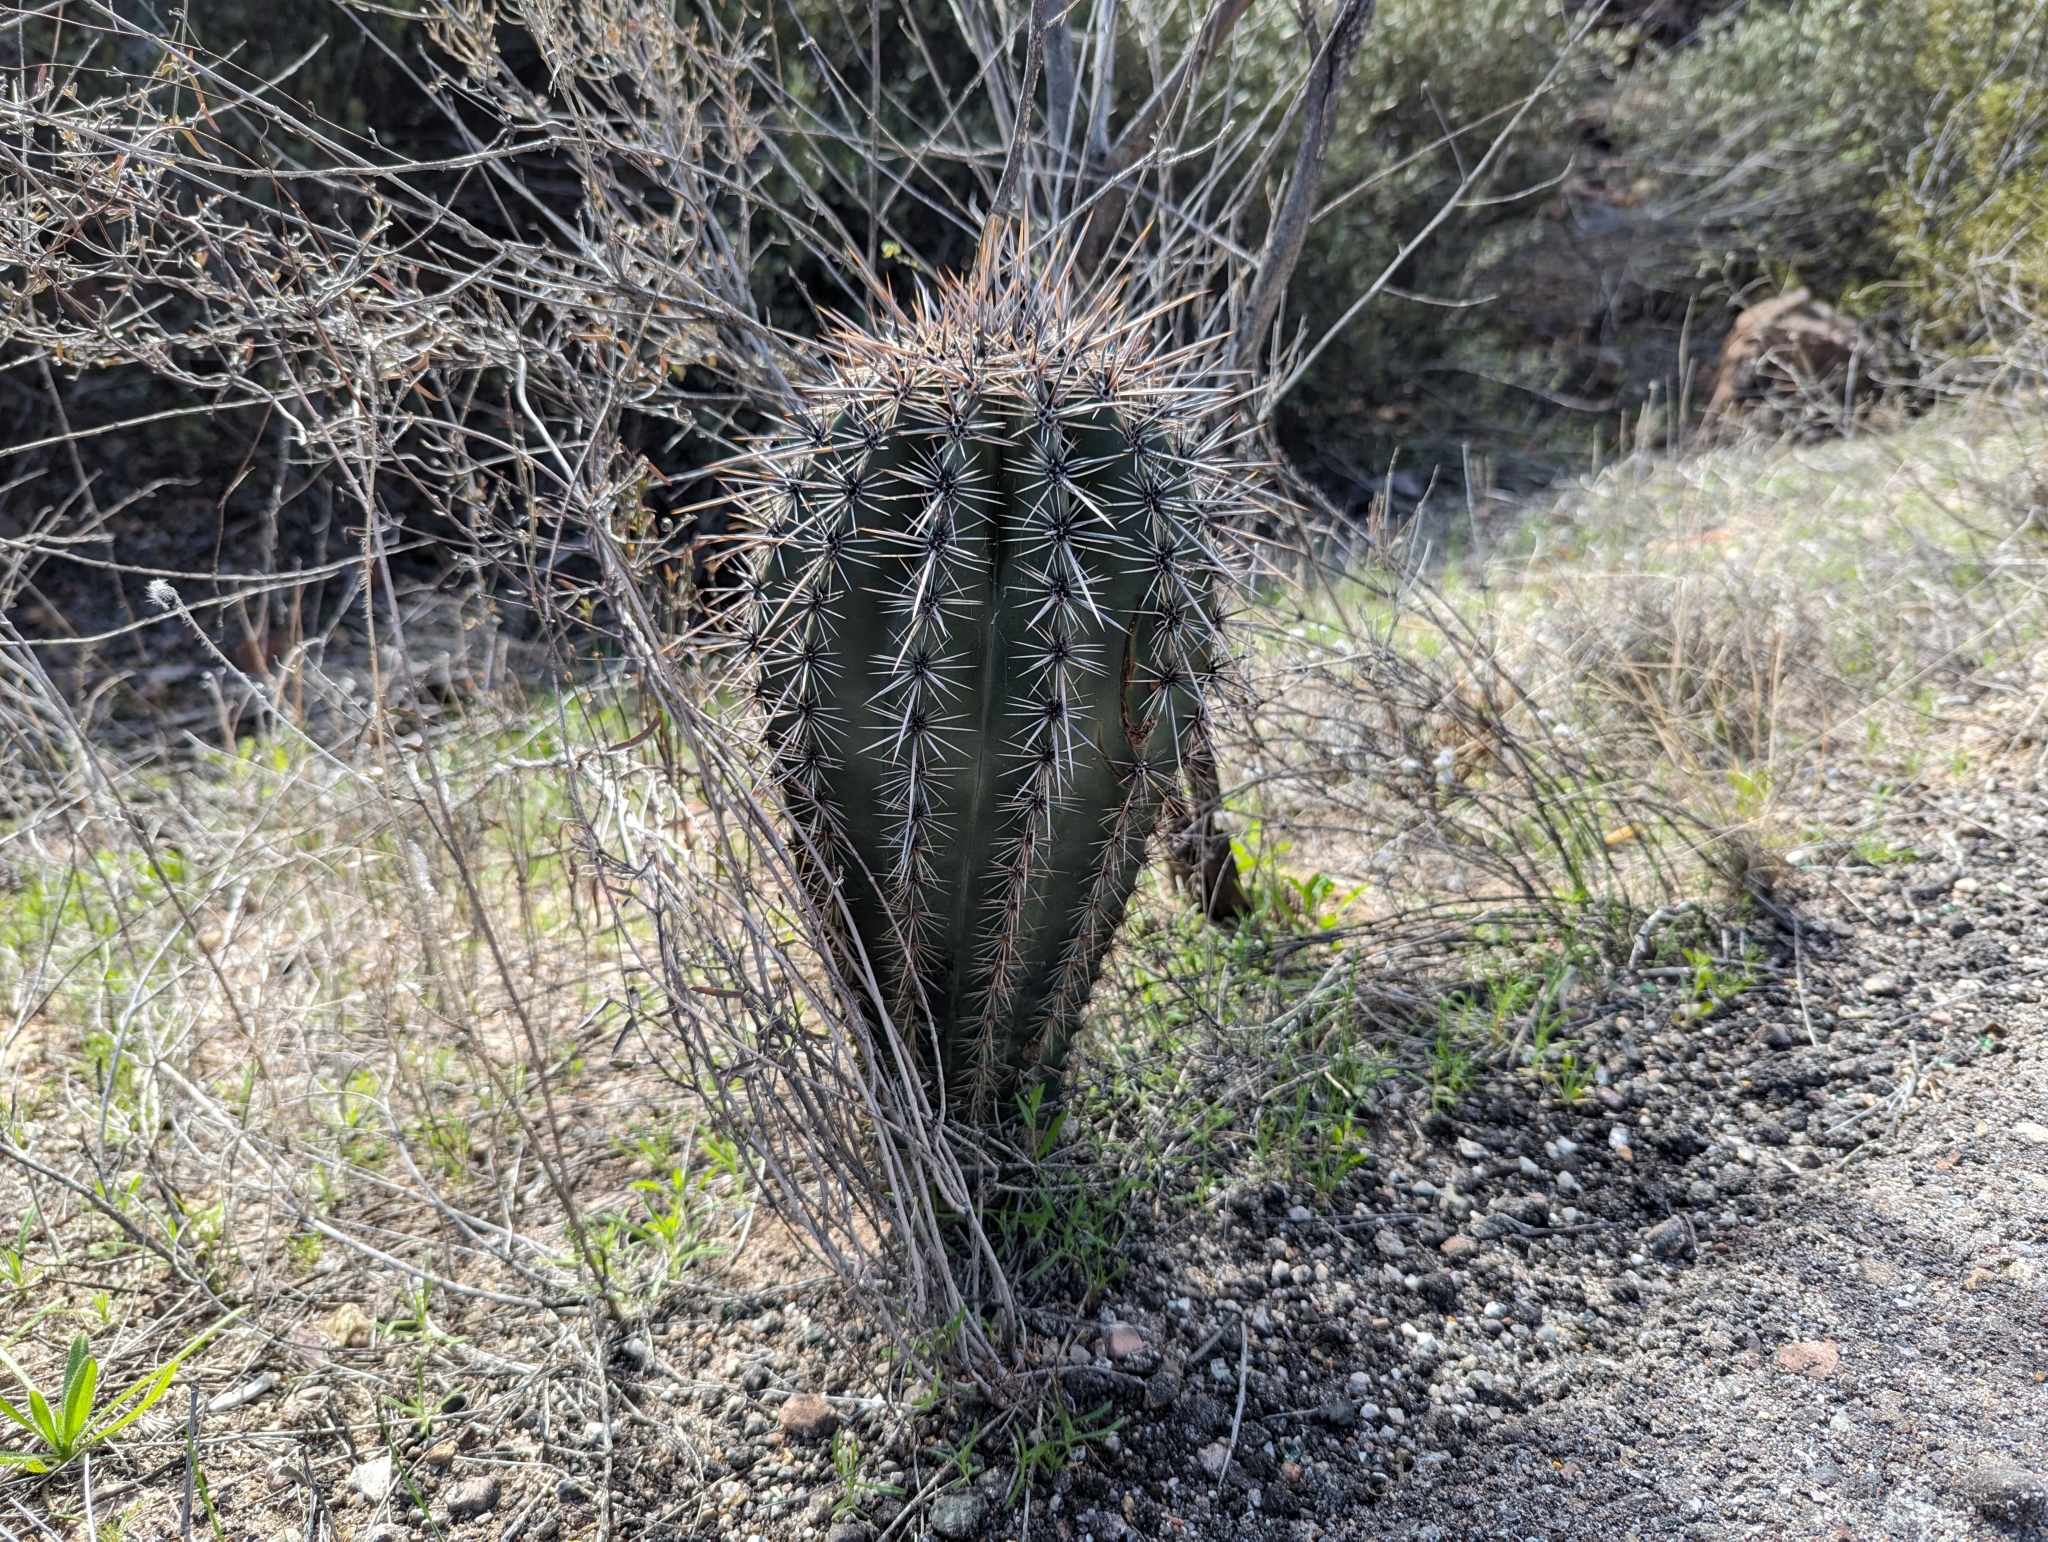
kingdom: Plantae
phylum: Tracheophyta
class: Magnoliopsida
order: Caryophyllales
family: Cactaceae
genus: Carnegiea
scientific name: Carnegiea gigantea
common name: Saguaro
